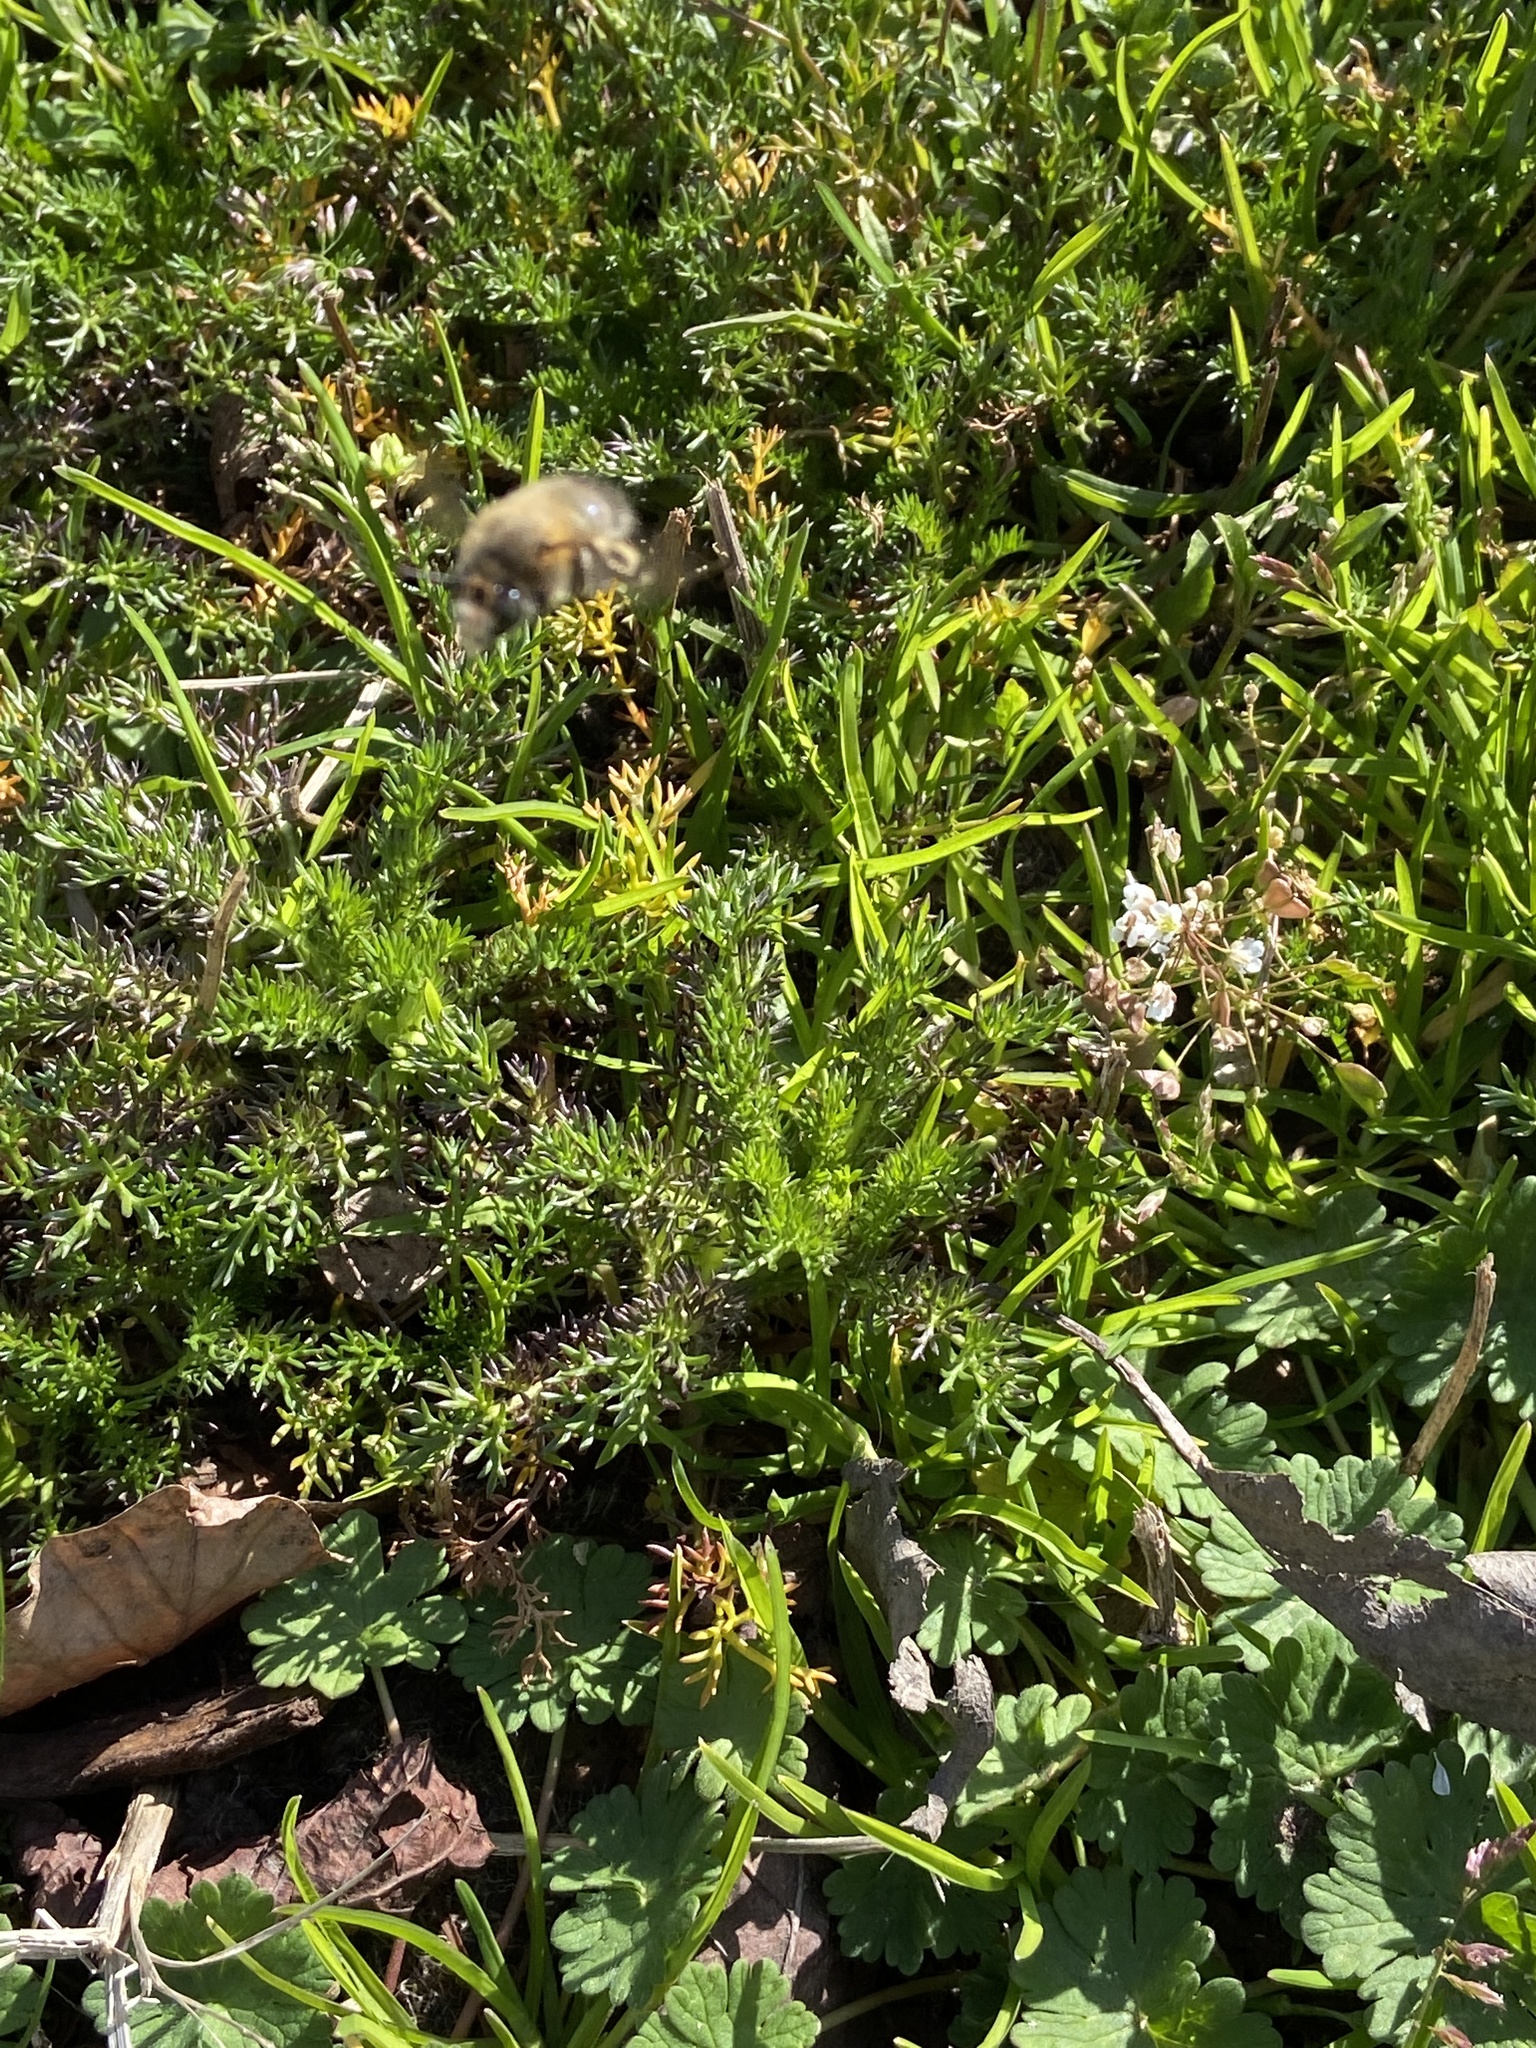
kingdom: Animalia
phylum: Arthropoda
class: Insecta
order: Hymenoptera
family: Apidae
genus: Anthophora
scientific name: Anthophora plumipes
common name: Hairy-footed flower bee
